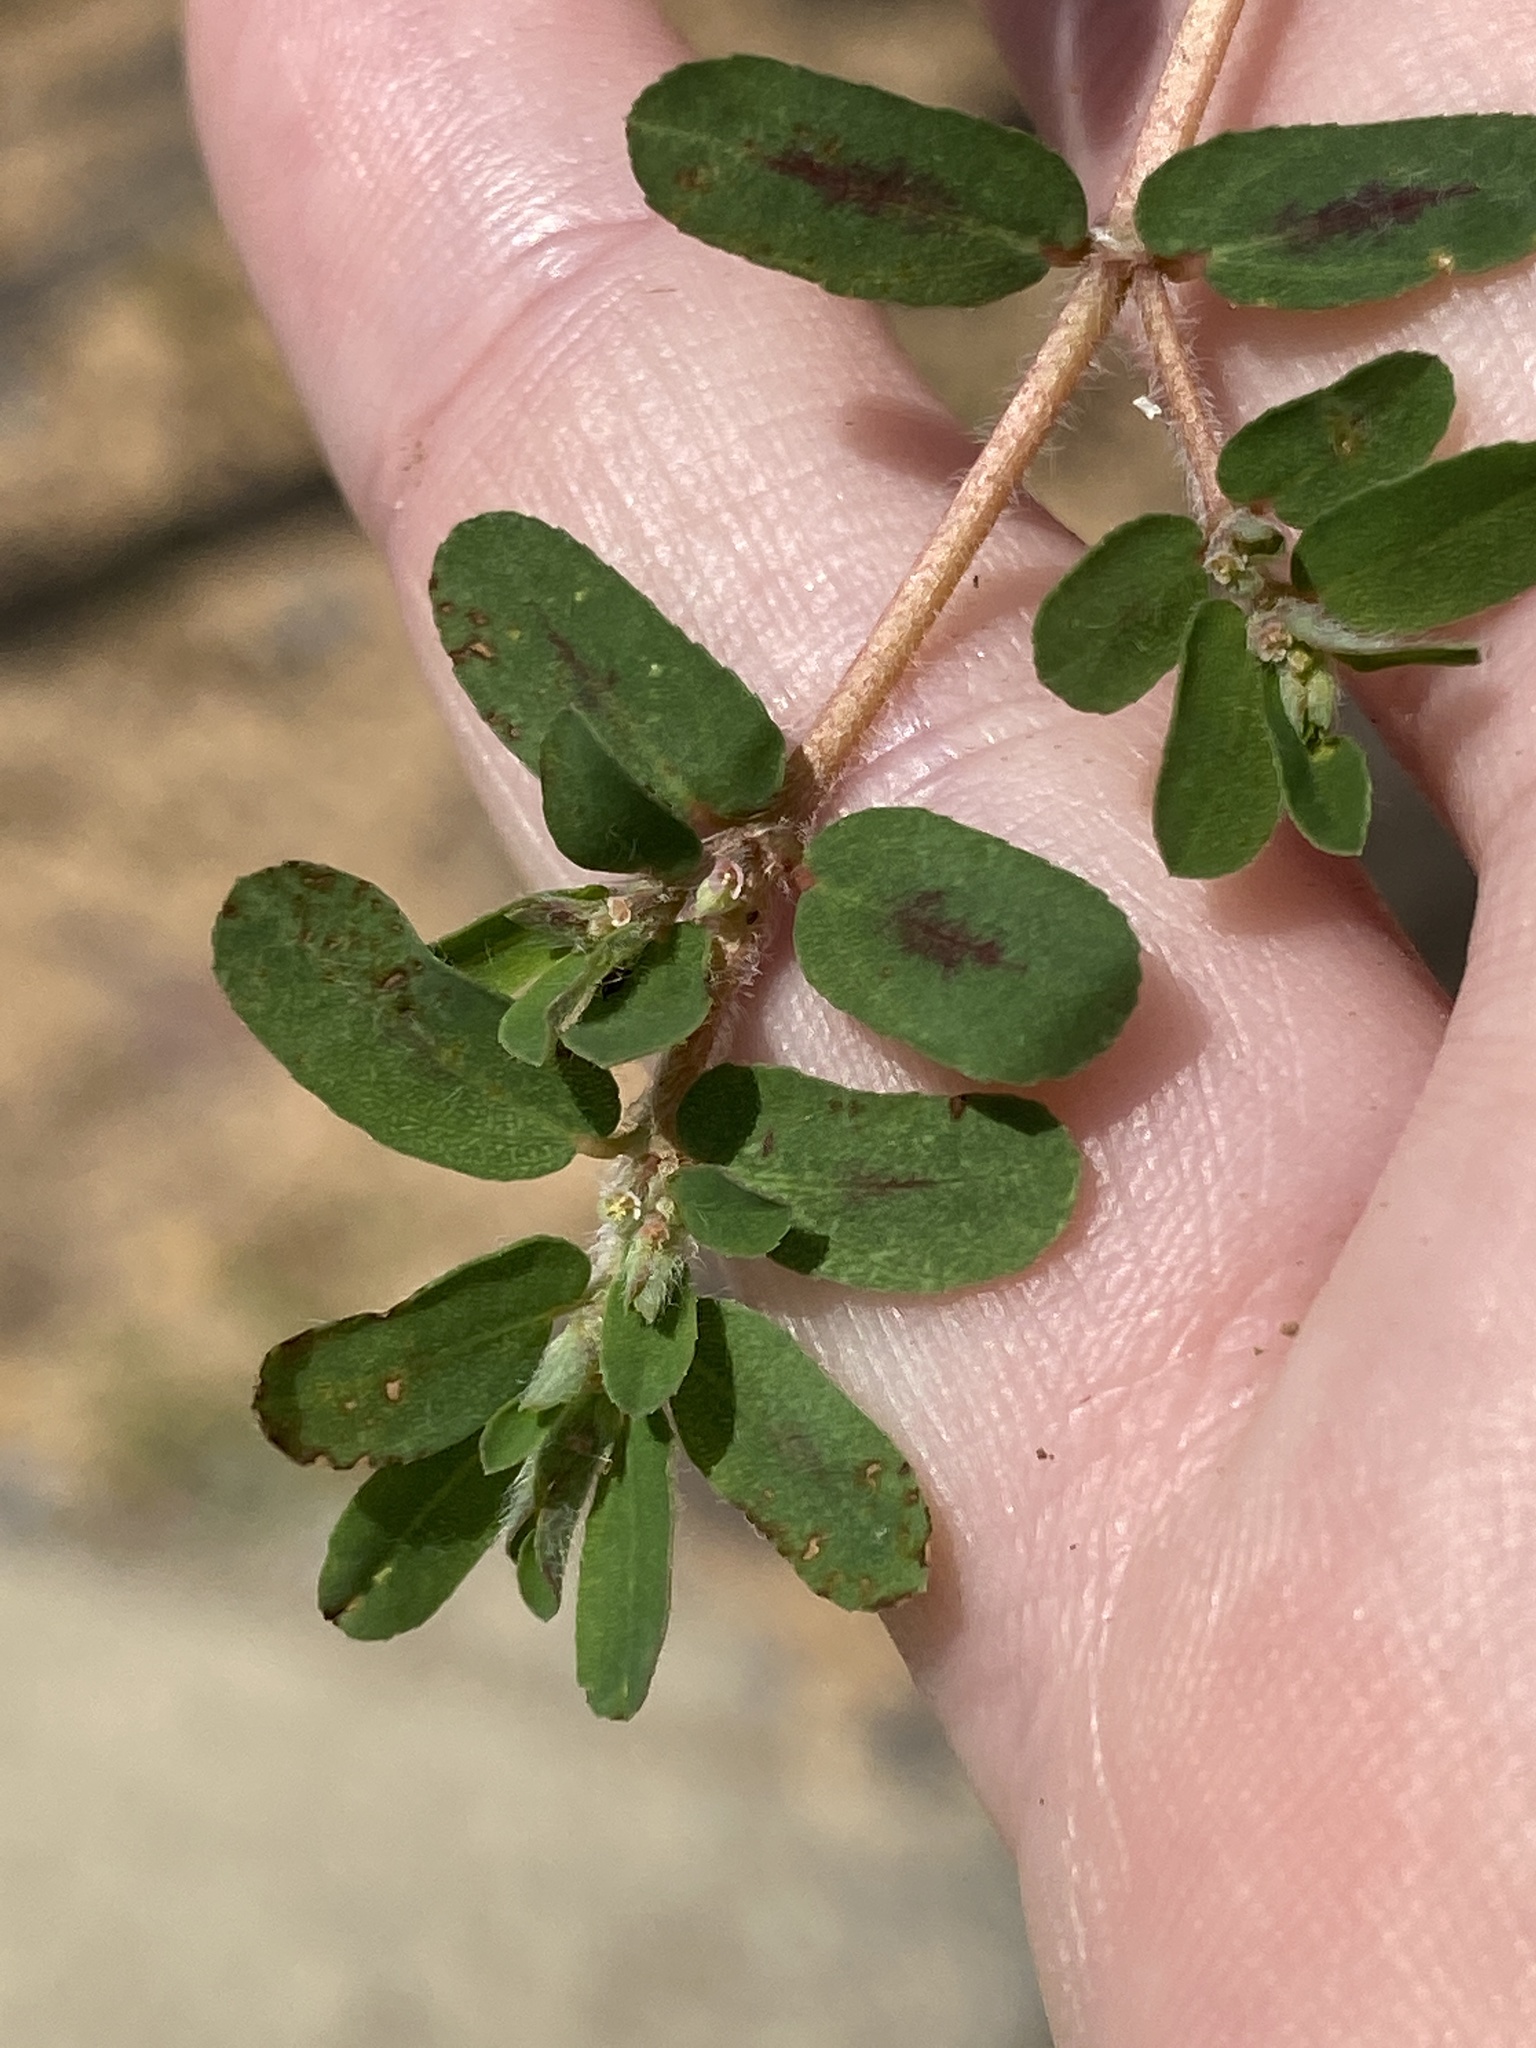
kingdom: Plantae
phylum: Tracheophyta
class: Magnoliopsida
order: Malpighiales
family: Euphorbiaceae
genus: Euphorbia
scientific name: Euphorbia maculata
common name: Spotted spurge
